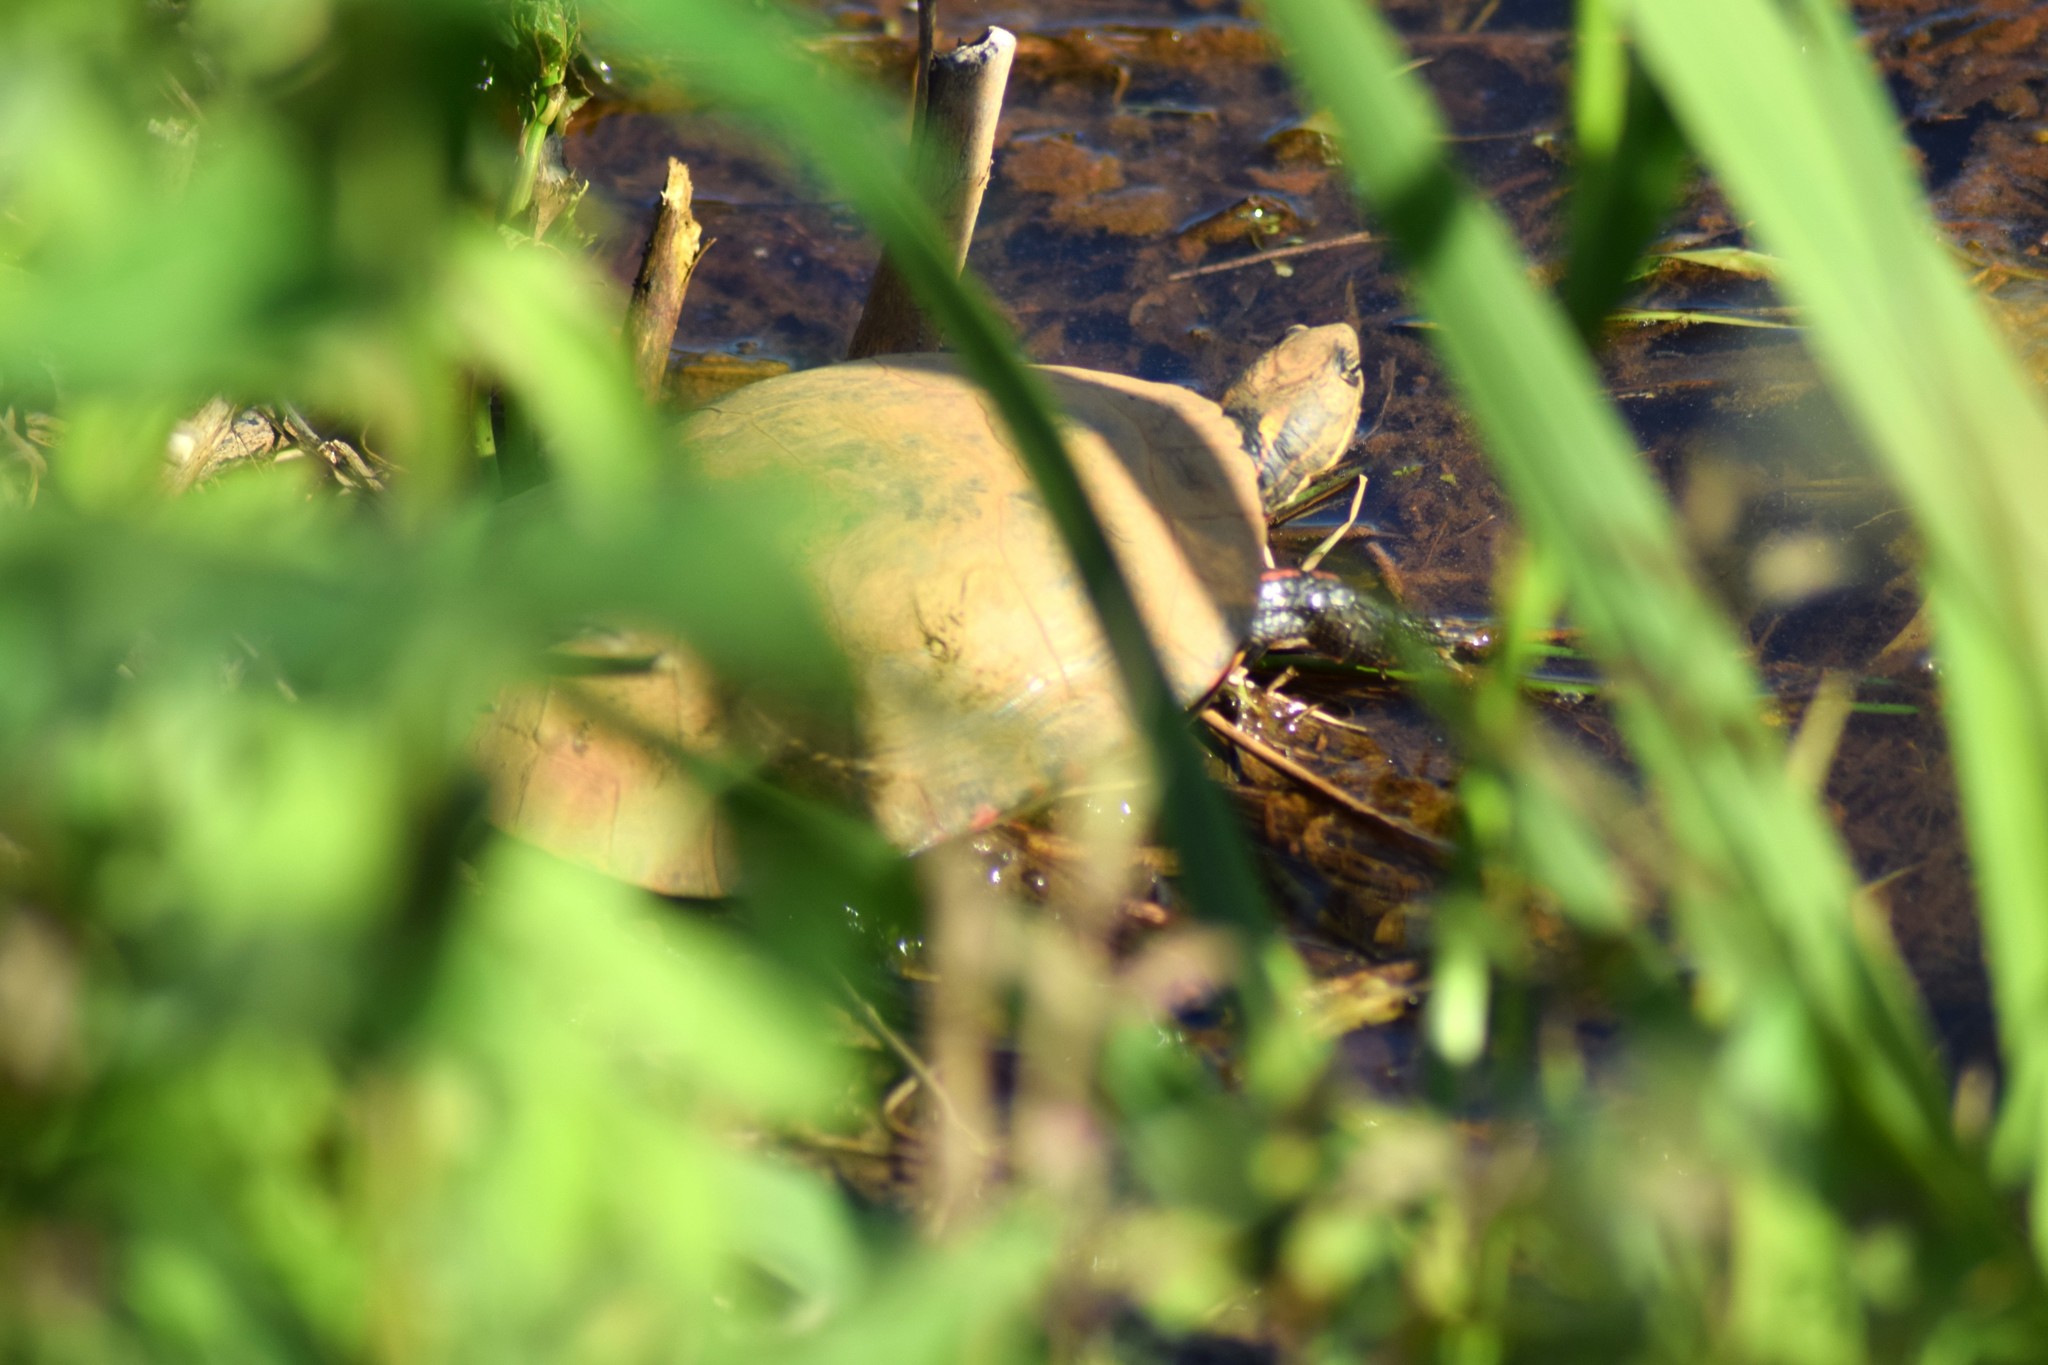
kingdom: Animalia
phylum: Chordata
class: Testudines
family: Emydidae
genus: Chrysemys
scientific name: Chrysemys picta
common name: Painted turtle
